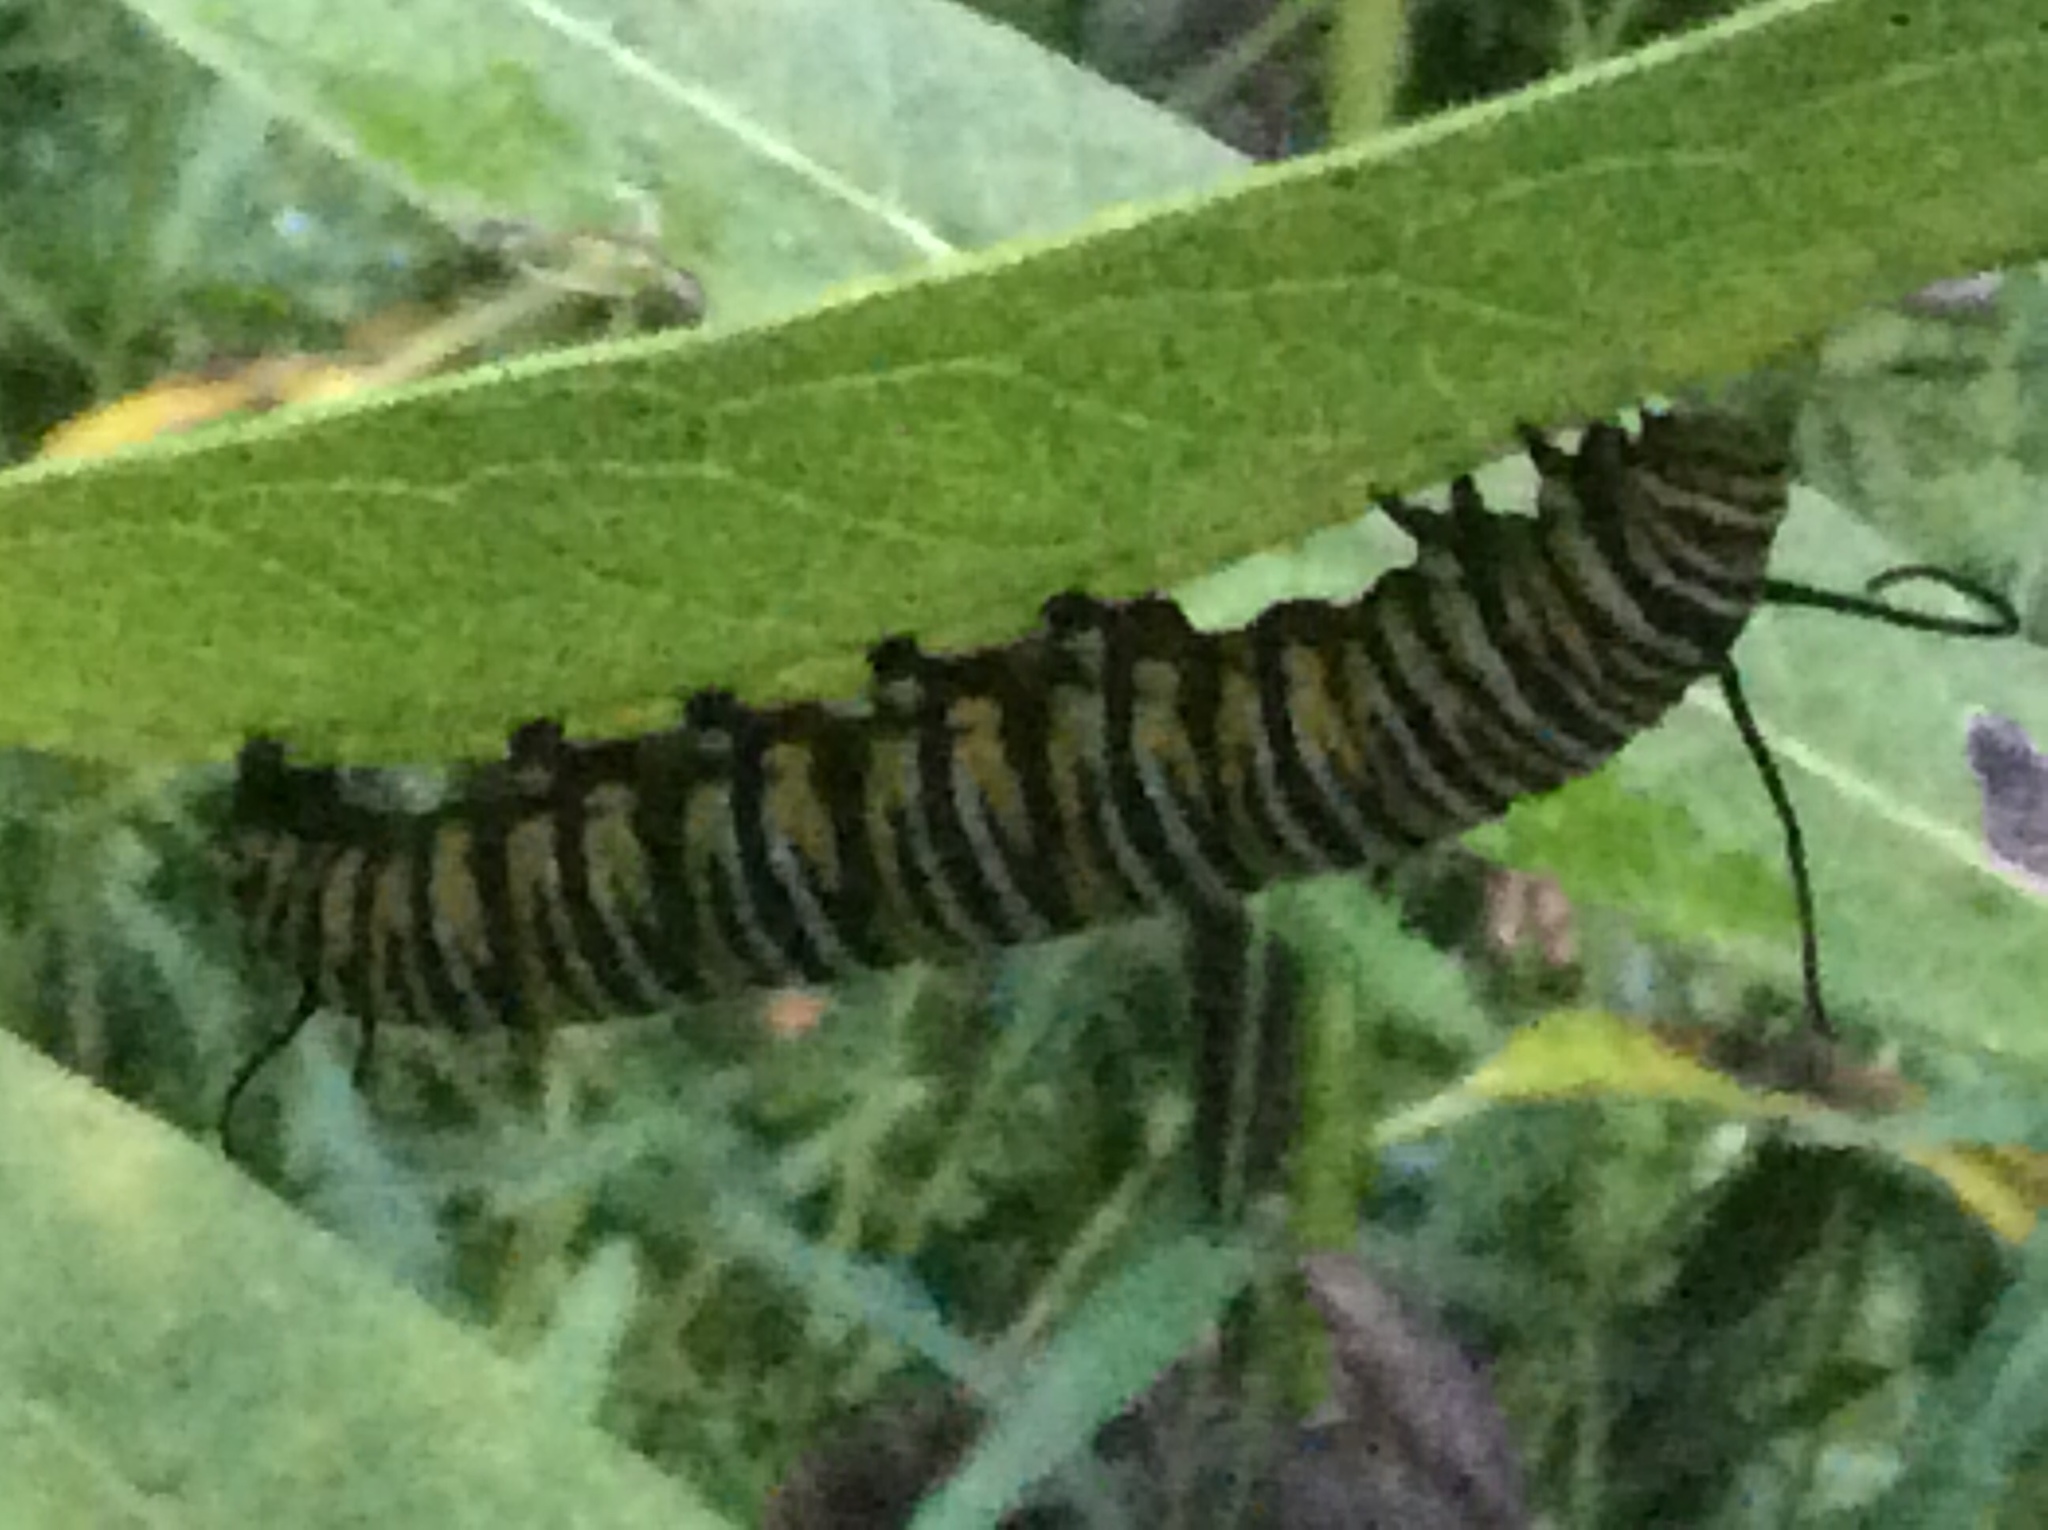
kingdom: Animalia
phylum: Arthropoda
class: Insecta
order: Lepidoptera
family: Nymphalidae
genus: Danaus
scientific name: Danaus plexippus
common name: Monarch
